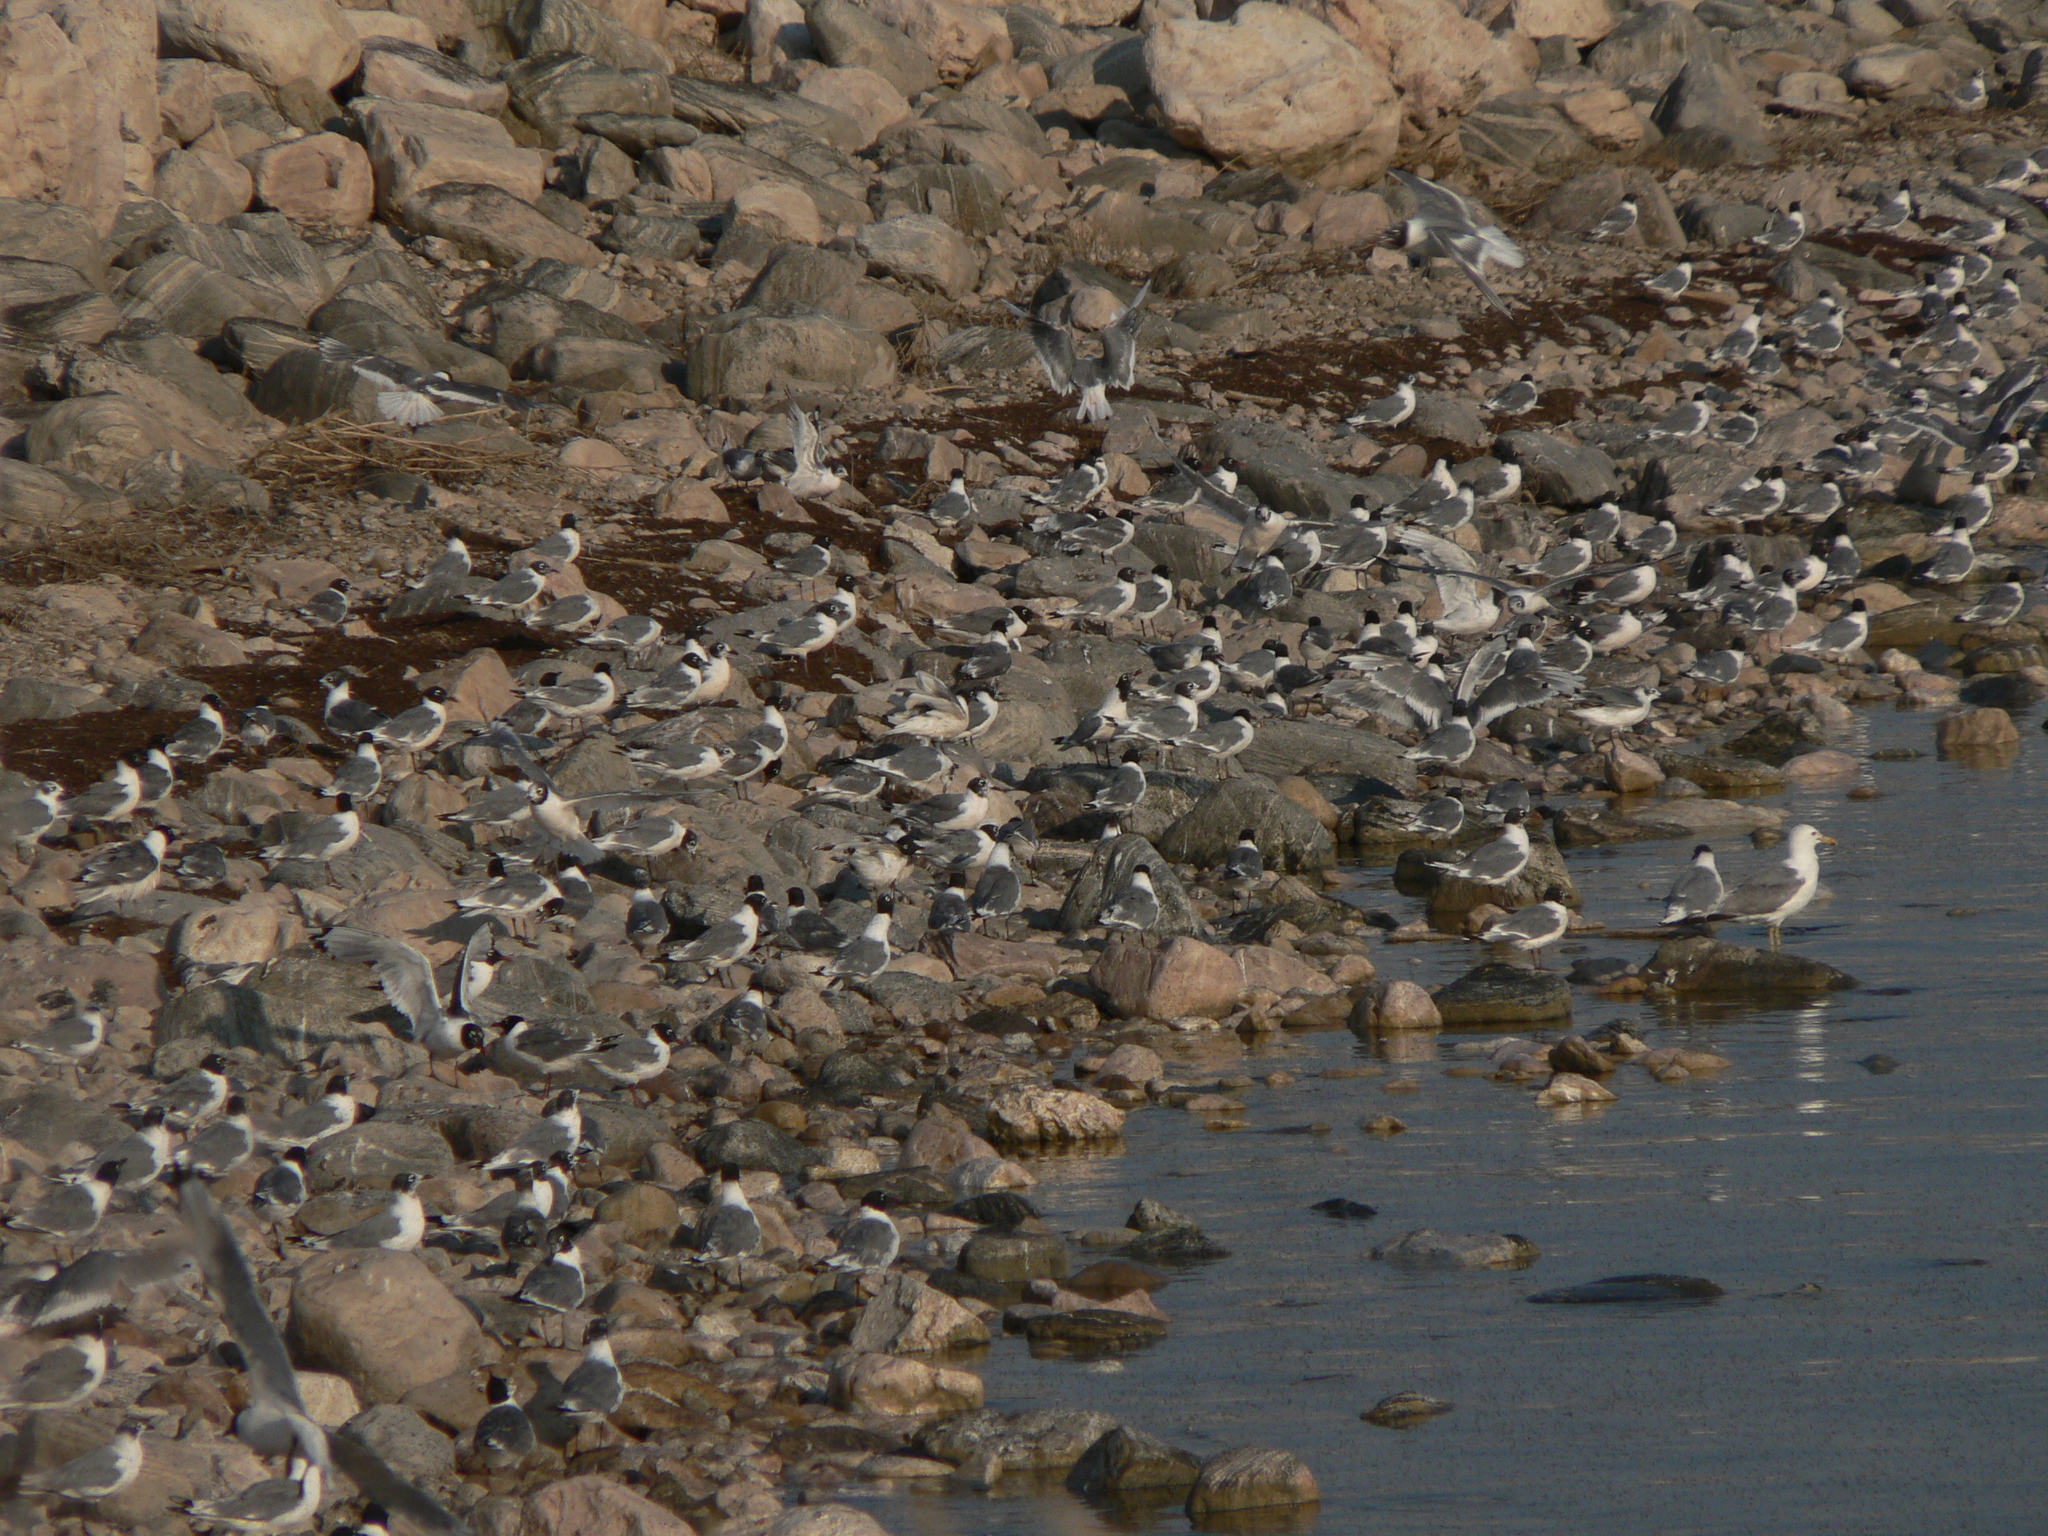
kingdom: Animalia
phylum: Chordata
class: Aves
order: Charadriiformes
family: Laridae
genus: Leucophaeus
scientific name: Leucophaeus pipixcan
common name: Franklin's gull
